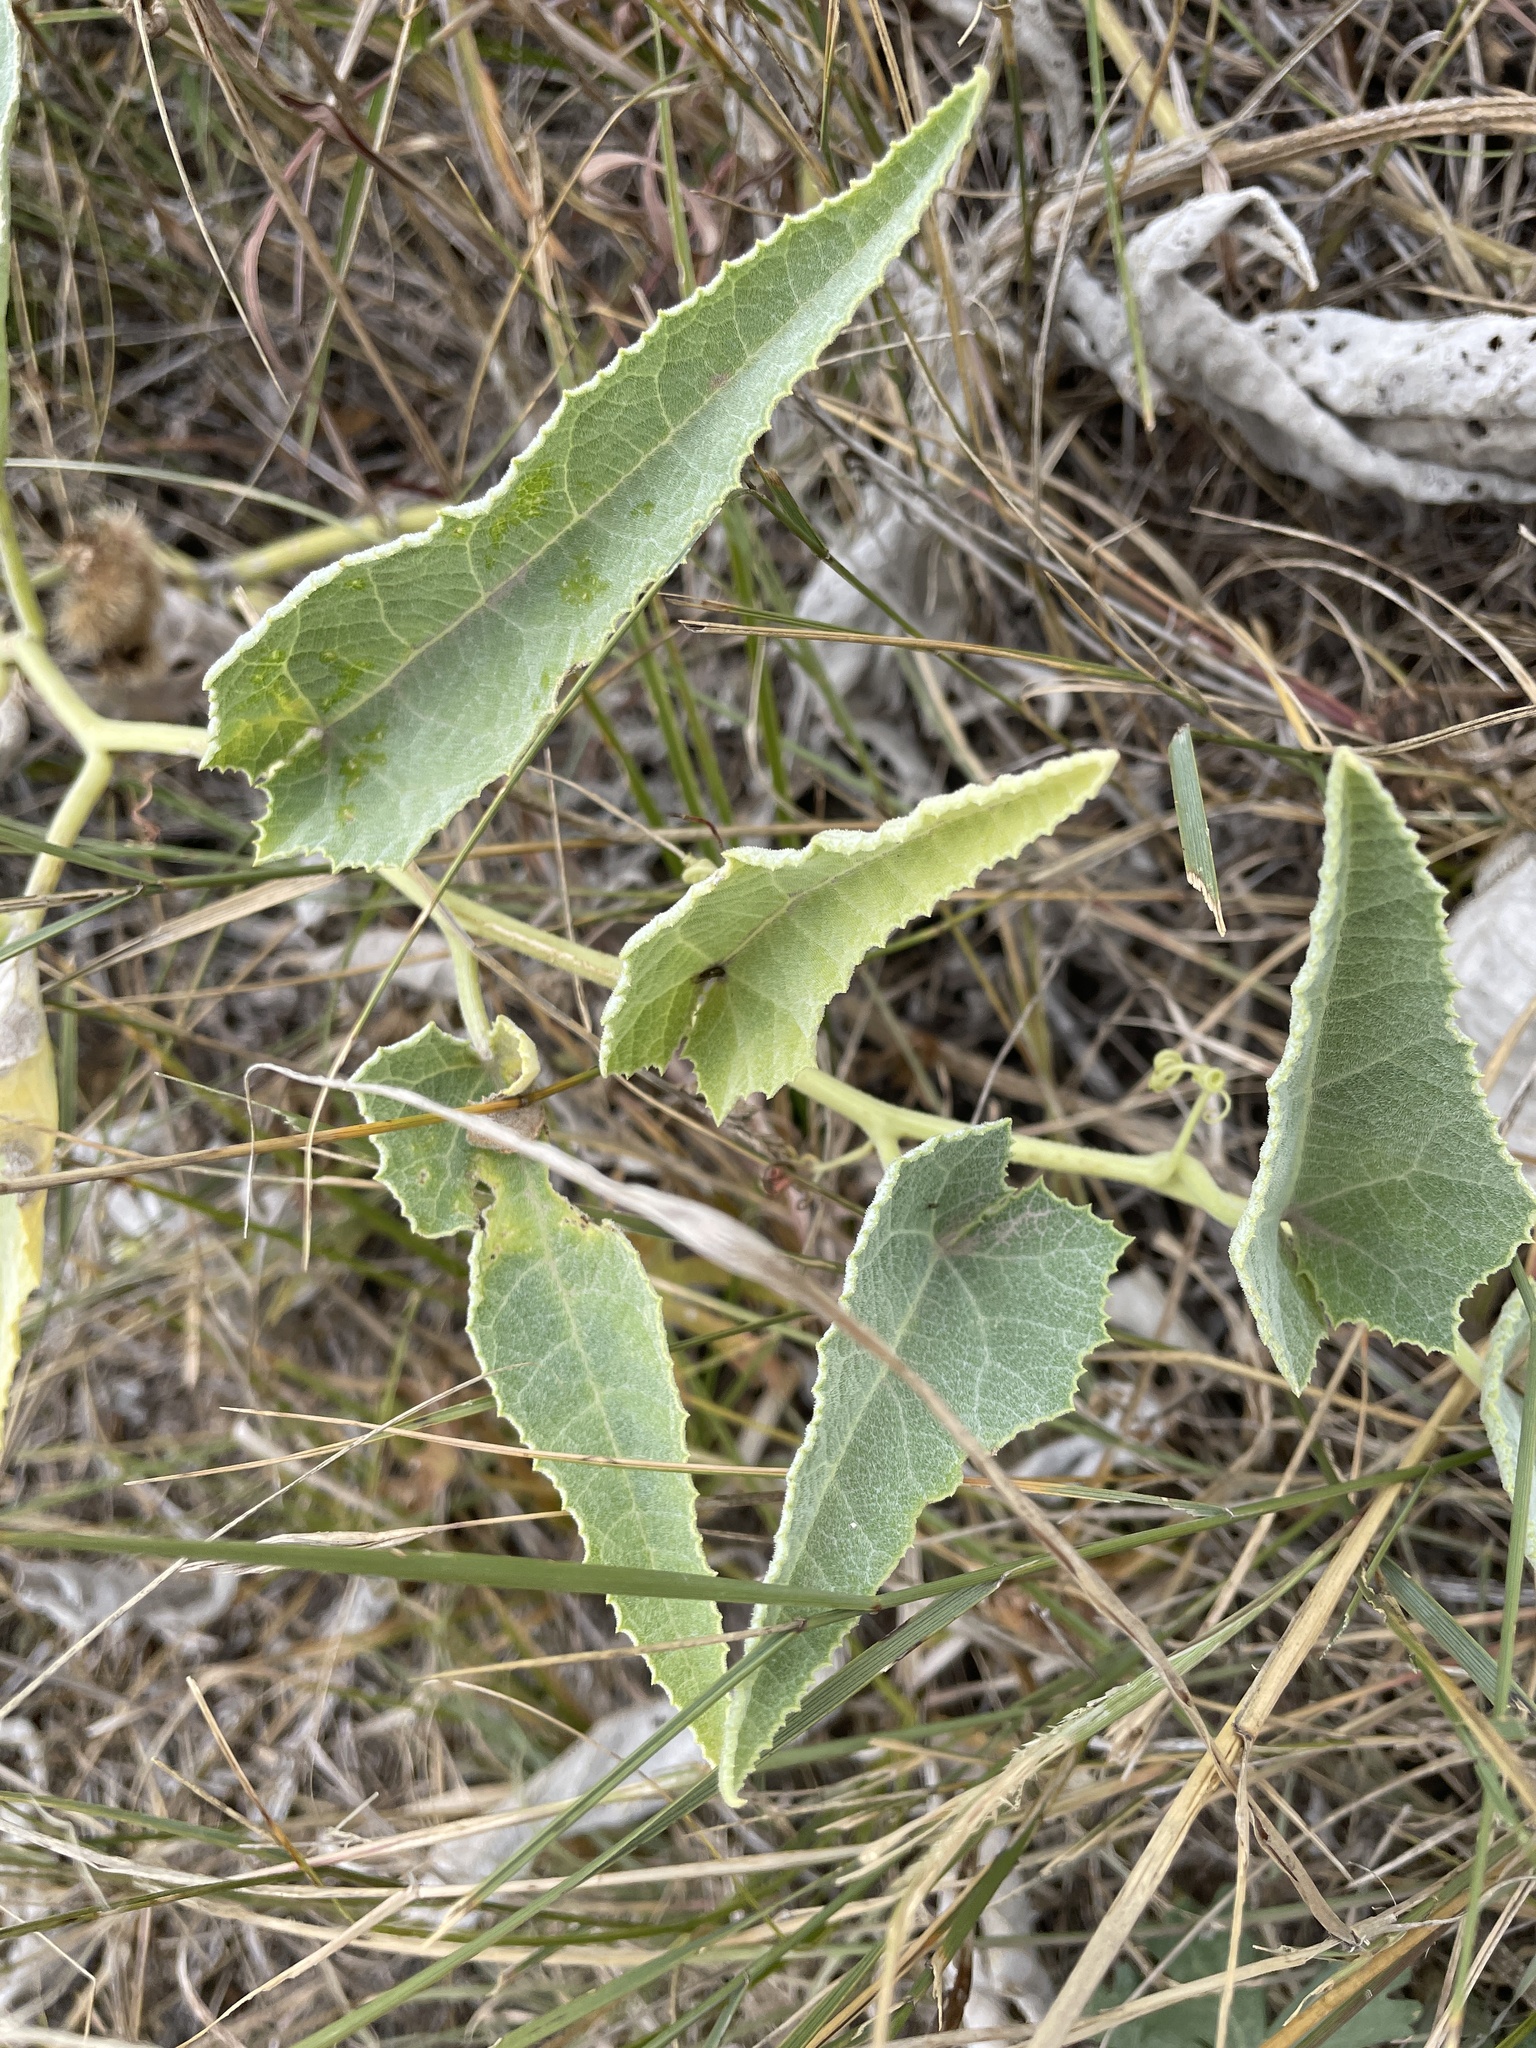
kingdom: Plantae
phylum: Tracheophyta
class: Magnoliopsida
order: Cucurbitales
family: Cucurbitaceae
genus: Cucurbita
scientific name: Cucurbita foetidissima
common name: Buffalo gourd
